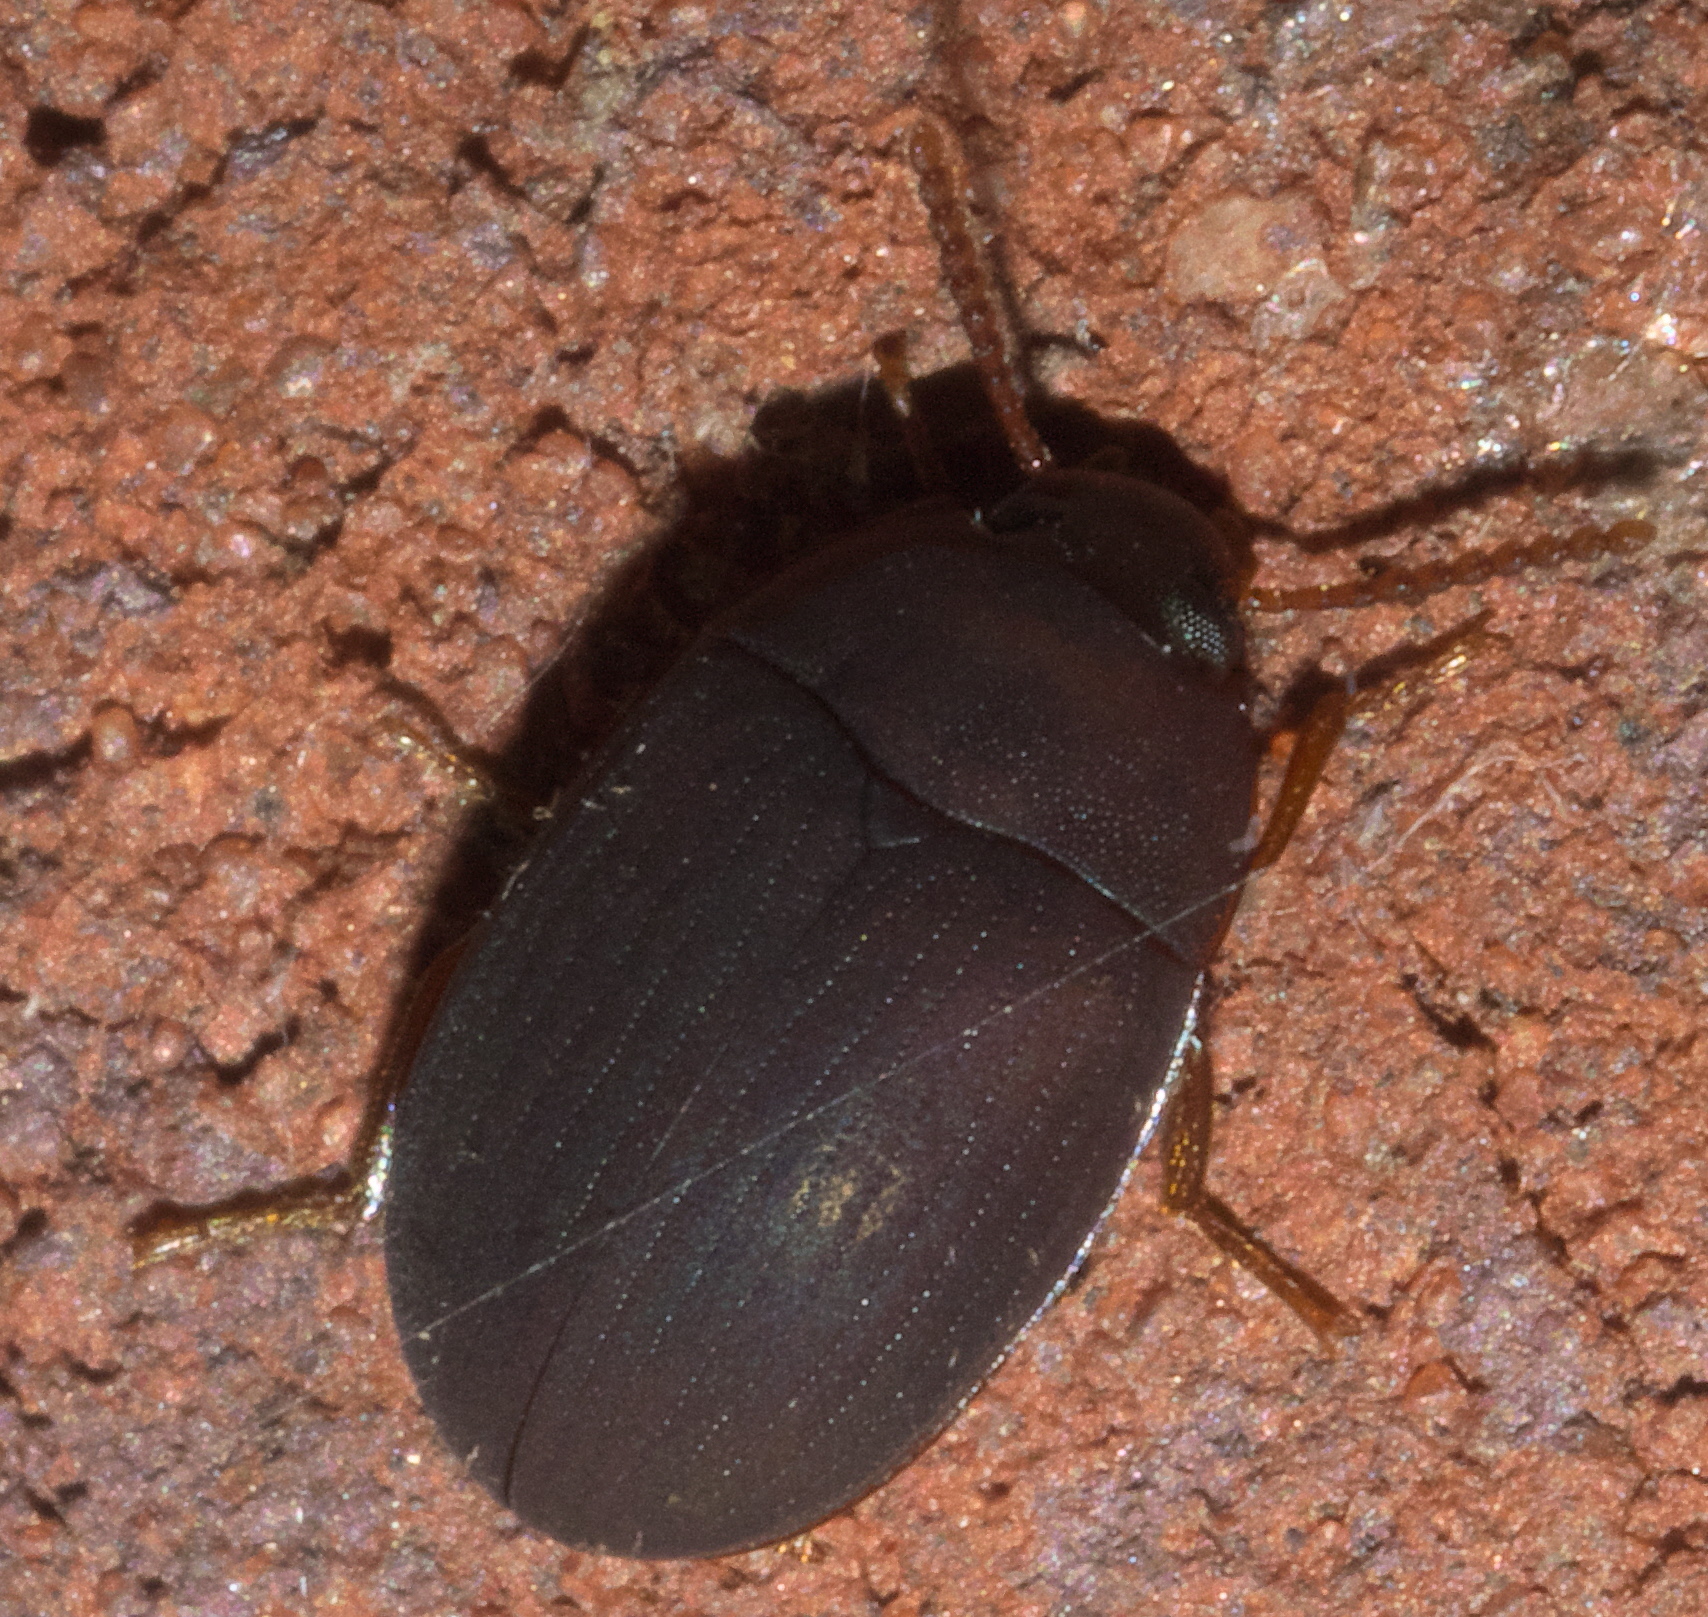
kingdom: Animalia
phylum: Arthropoda
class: Insecta
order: Coleoptera
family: Tenebrionidae
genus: Platydema
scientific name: Platydema ruficornis
